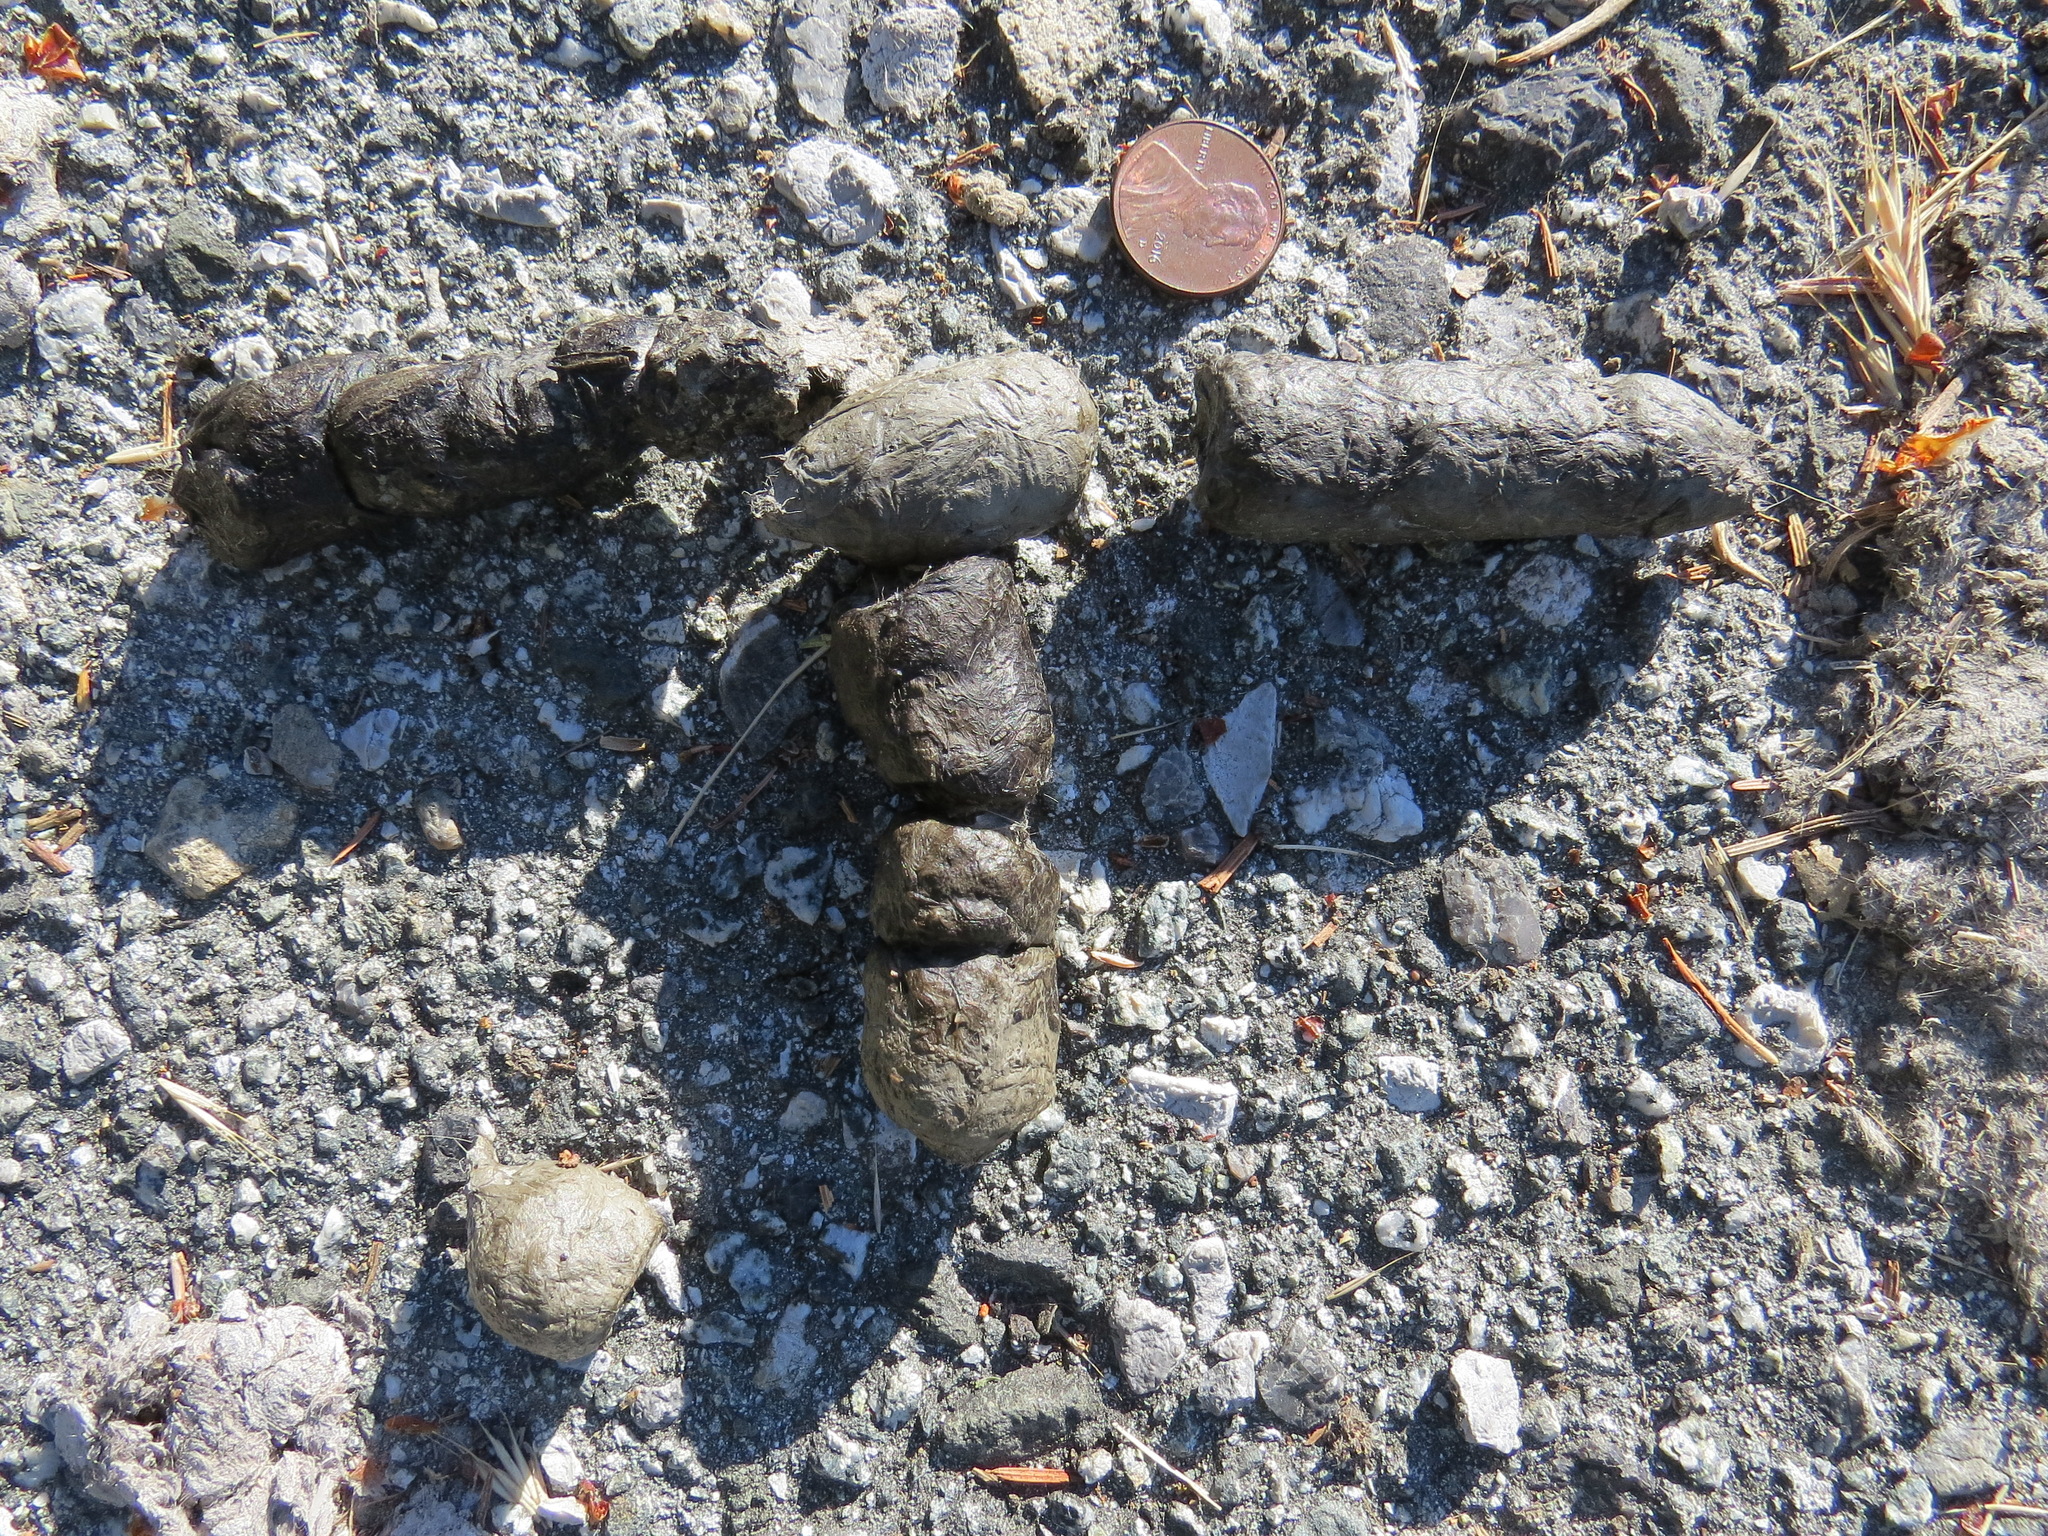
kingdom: Animalia
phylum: Chordata
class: Mammalia
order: Carnivora
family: Felidae
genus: Lynx
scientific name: Lynx rufus
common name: Bobcat
